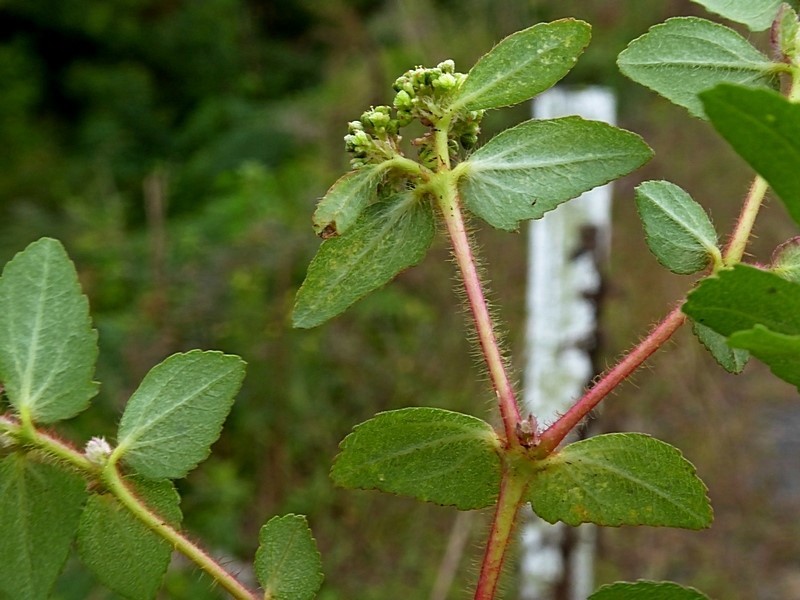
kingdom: Plantae
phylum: Tracheophyta
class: Magnoliopsida
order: Malpighiales
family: Euphorbiaceae
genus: Euphorbia
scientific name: Euphorbia ophthalmica
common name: Florida hammock sandmat
